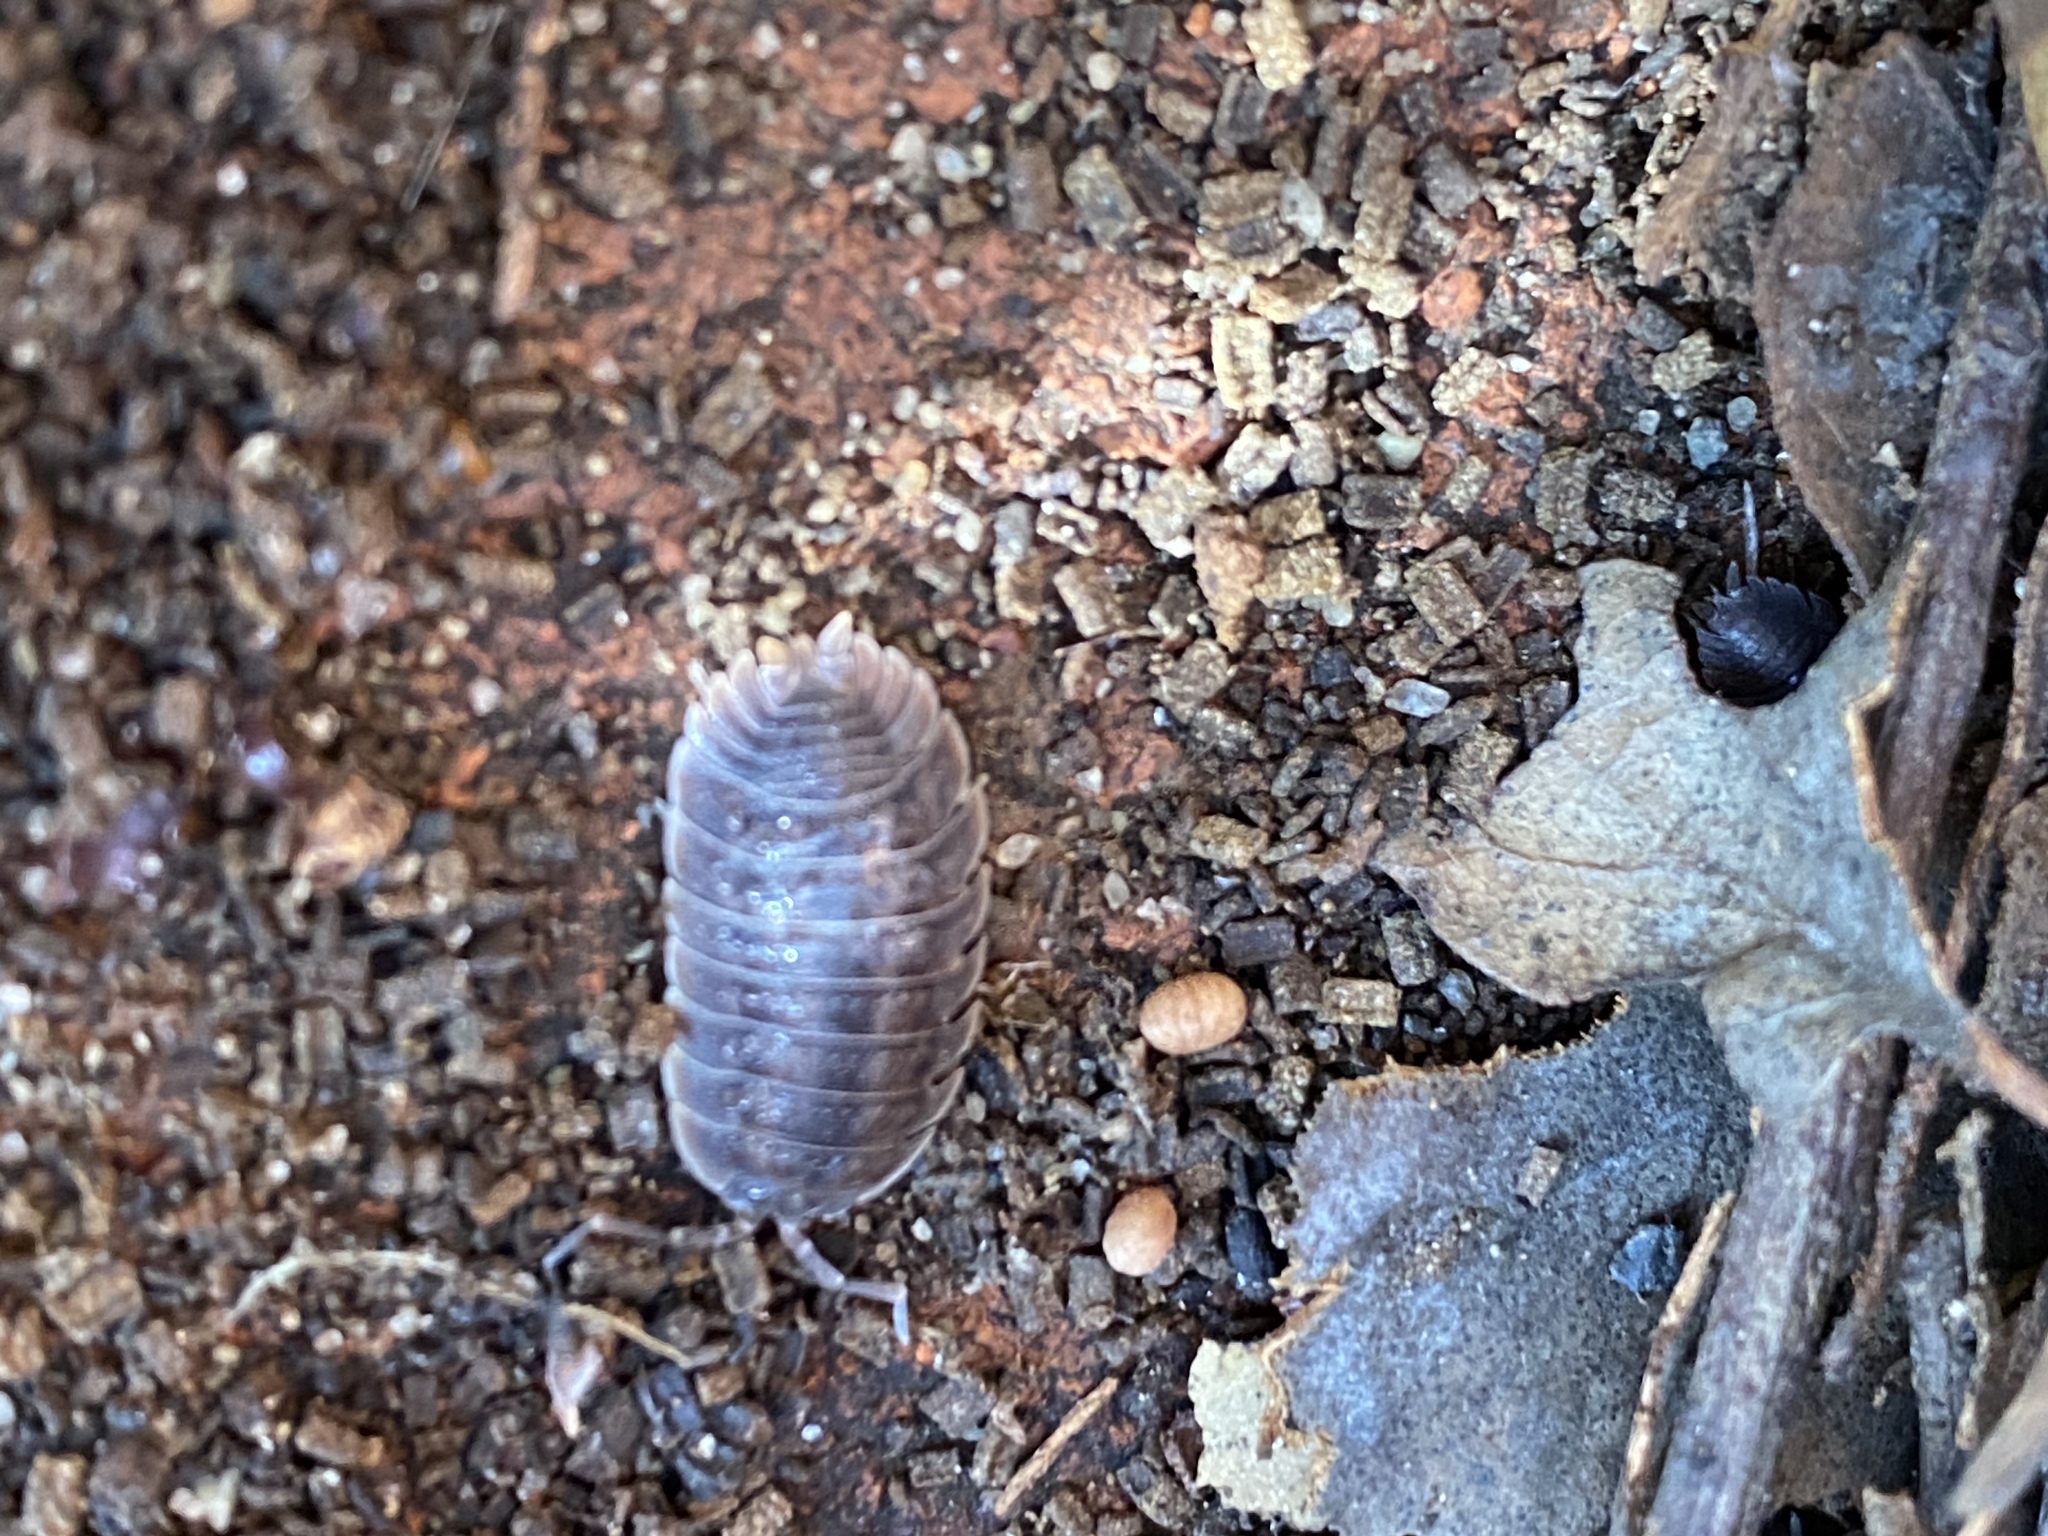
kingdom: Animalia
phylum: Arthropoda
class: Malacostraca
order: Isopoda
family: Porcellionidae
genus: Porcellio
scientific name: Porcellio dilatatus
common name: Isopod
